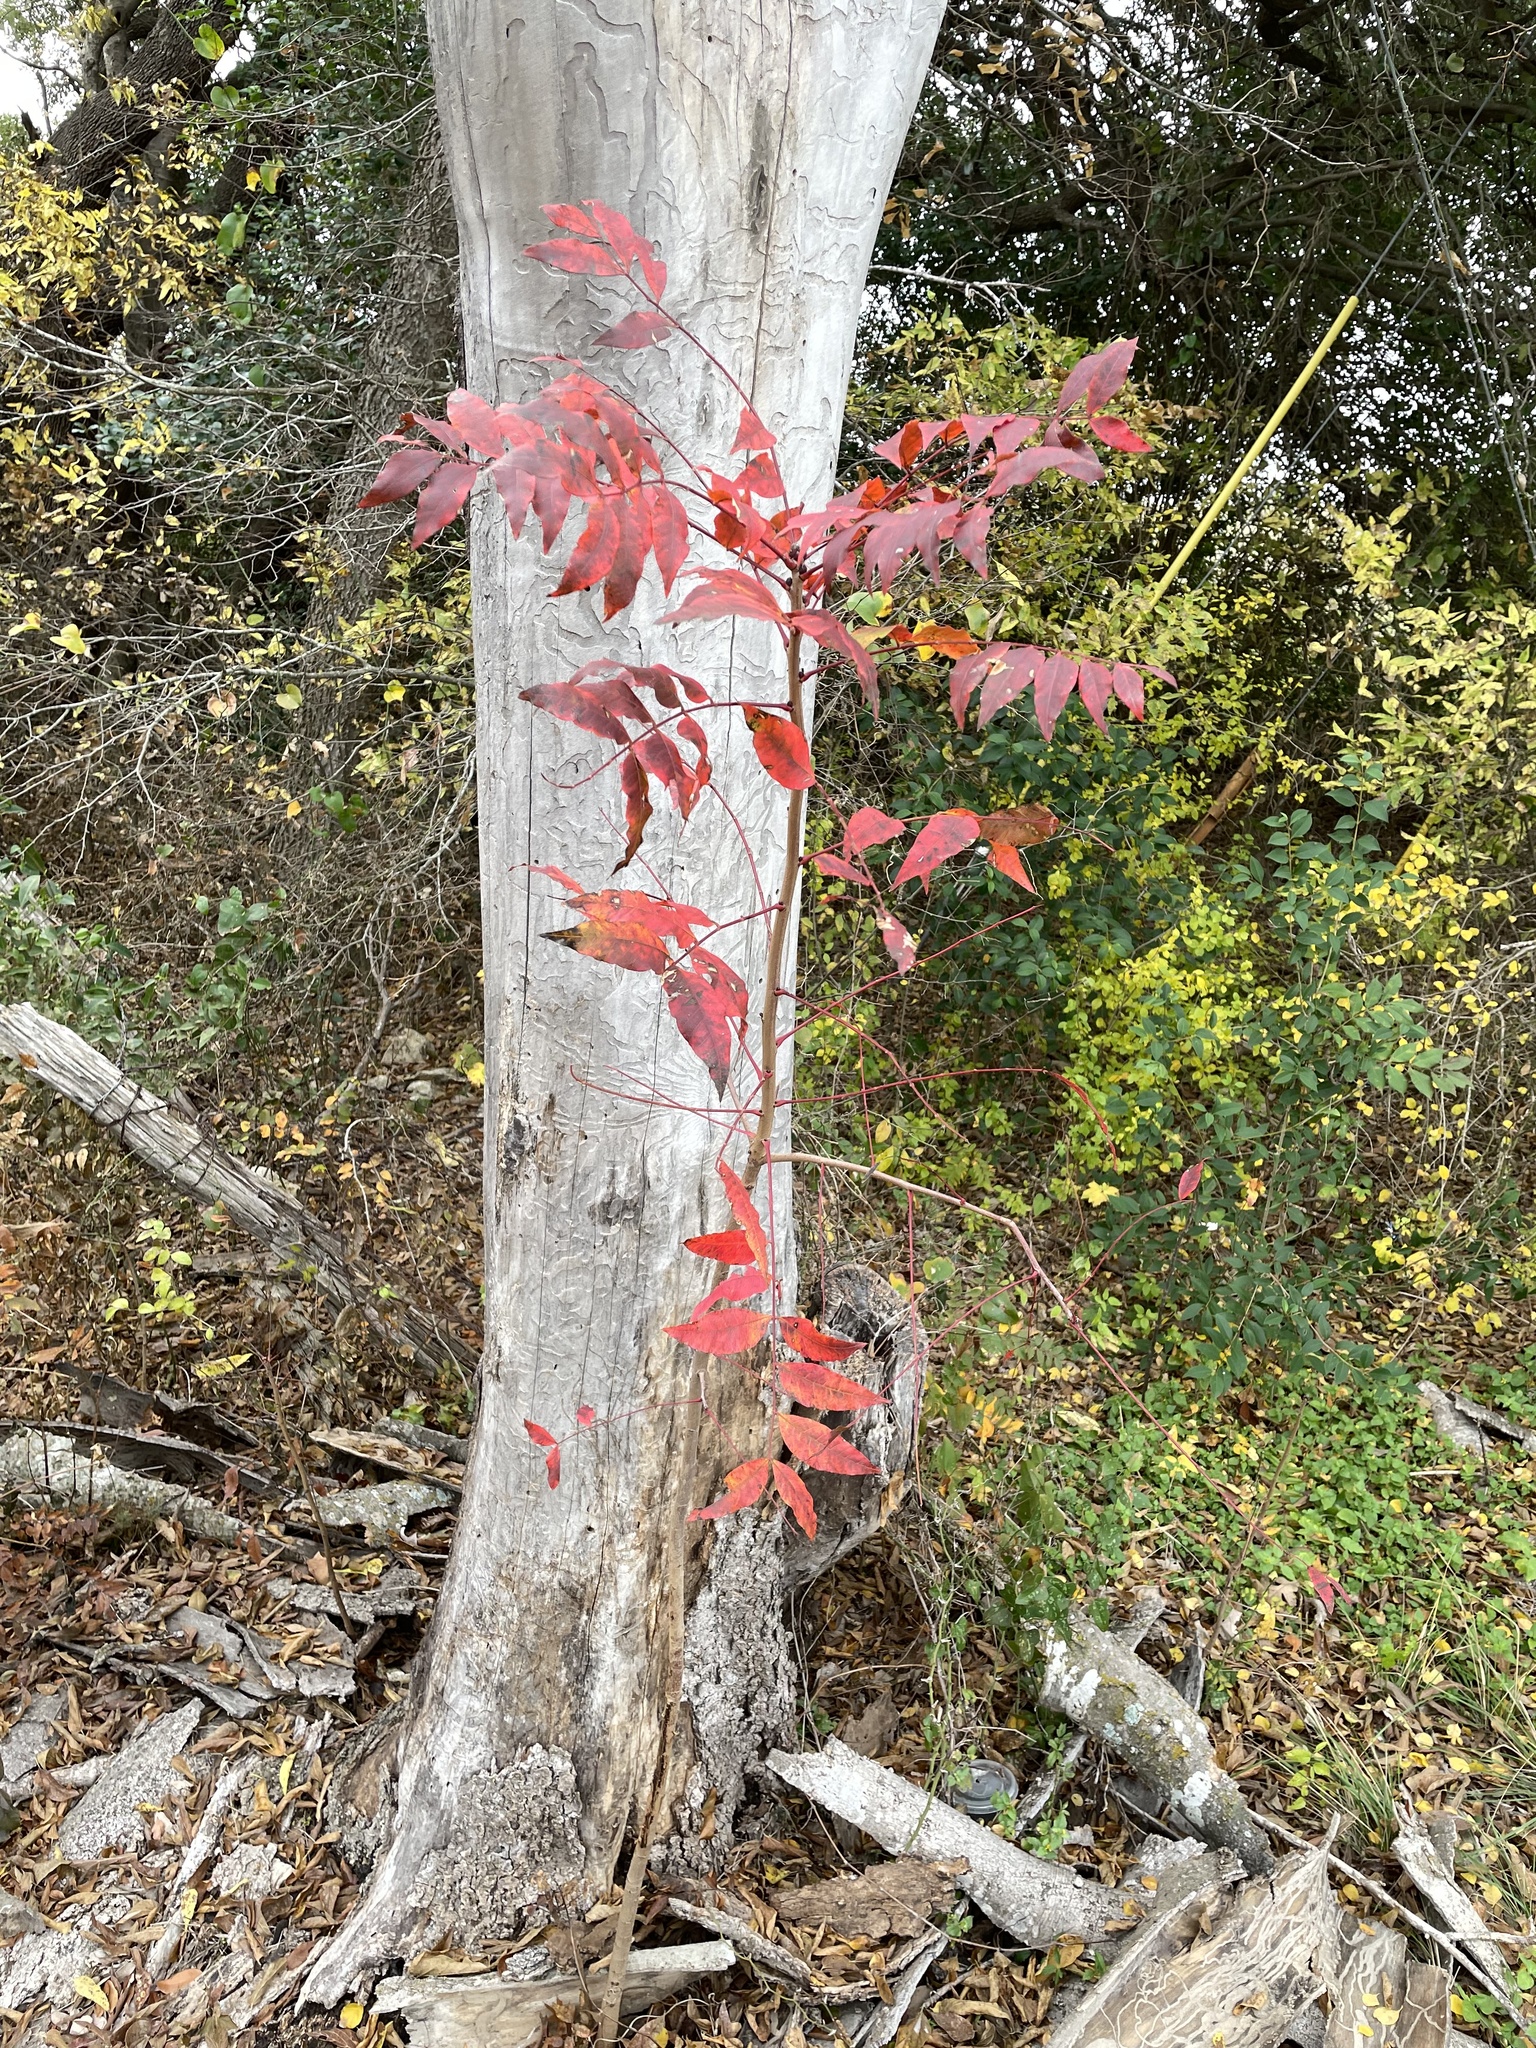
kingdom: Plantae
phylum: Tracheophyta
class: Magnoliopsida
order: Sapindales
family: Anacardiaceae
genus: Pistacia
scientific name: Pistacia chinensis
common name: Chinese pistache
